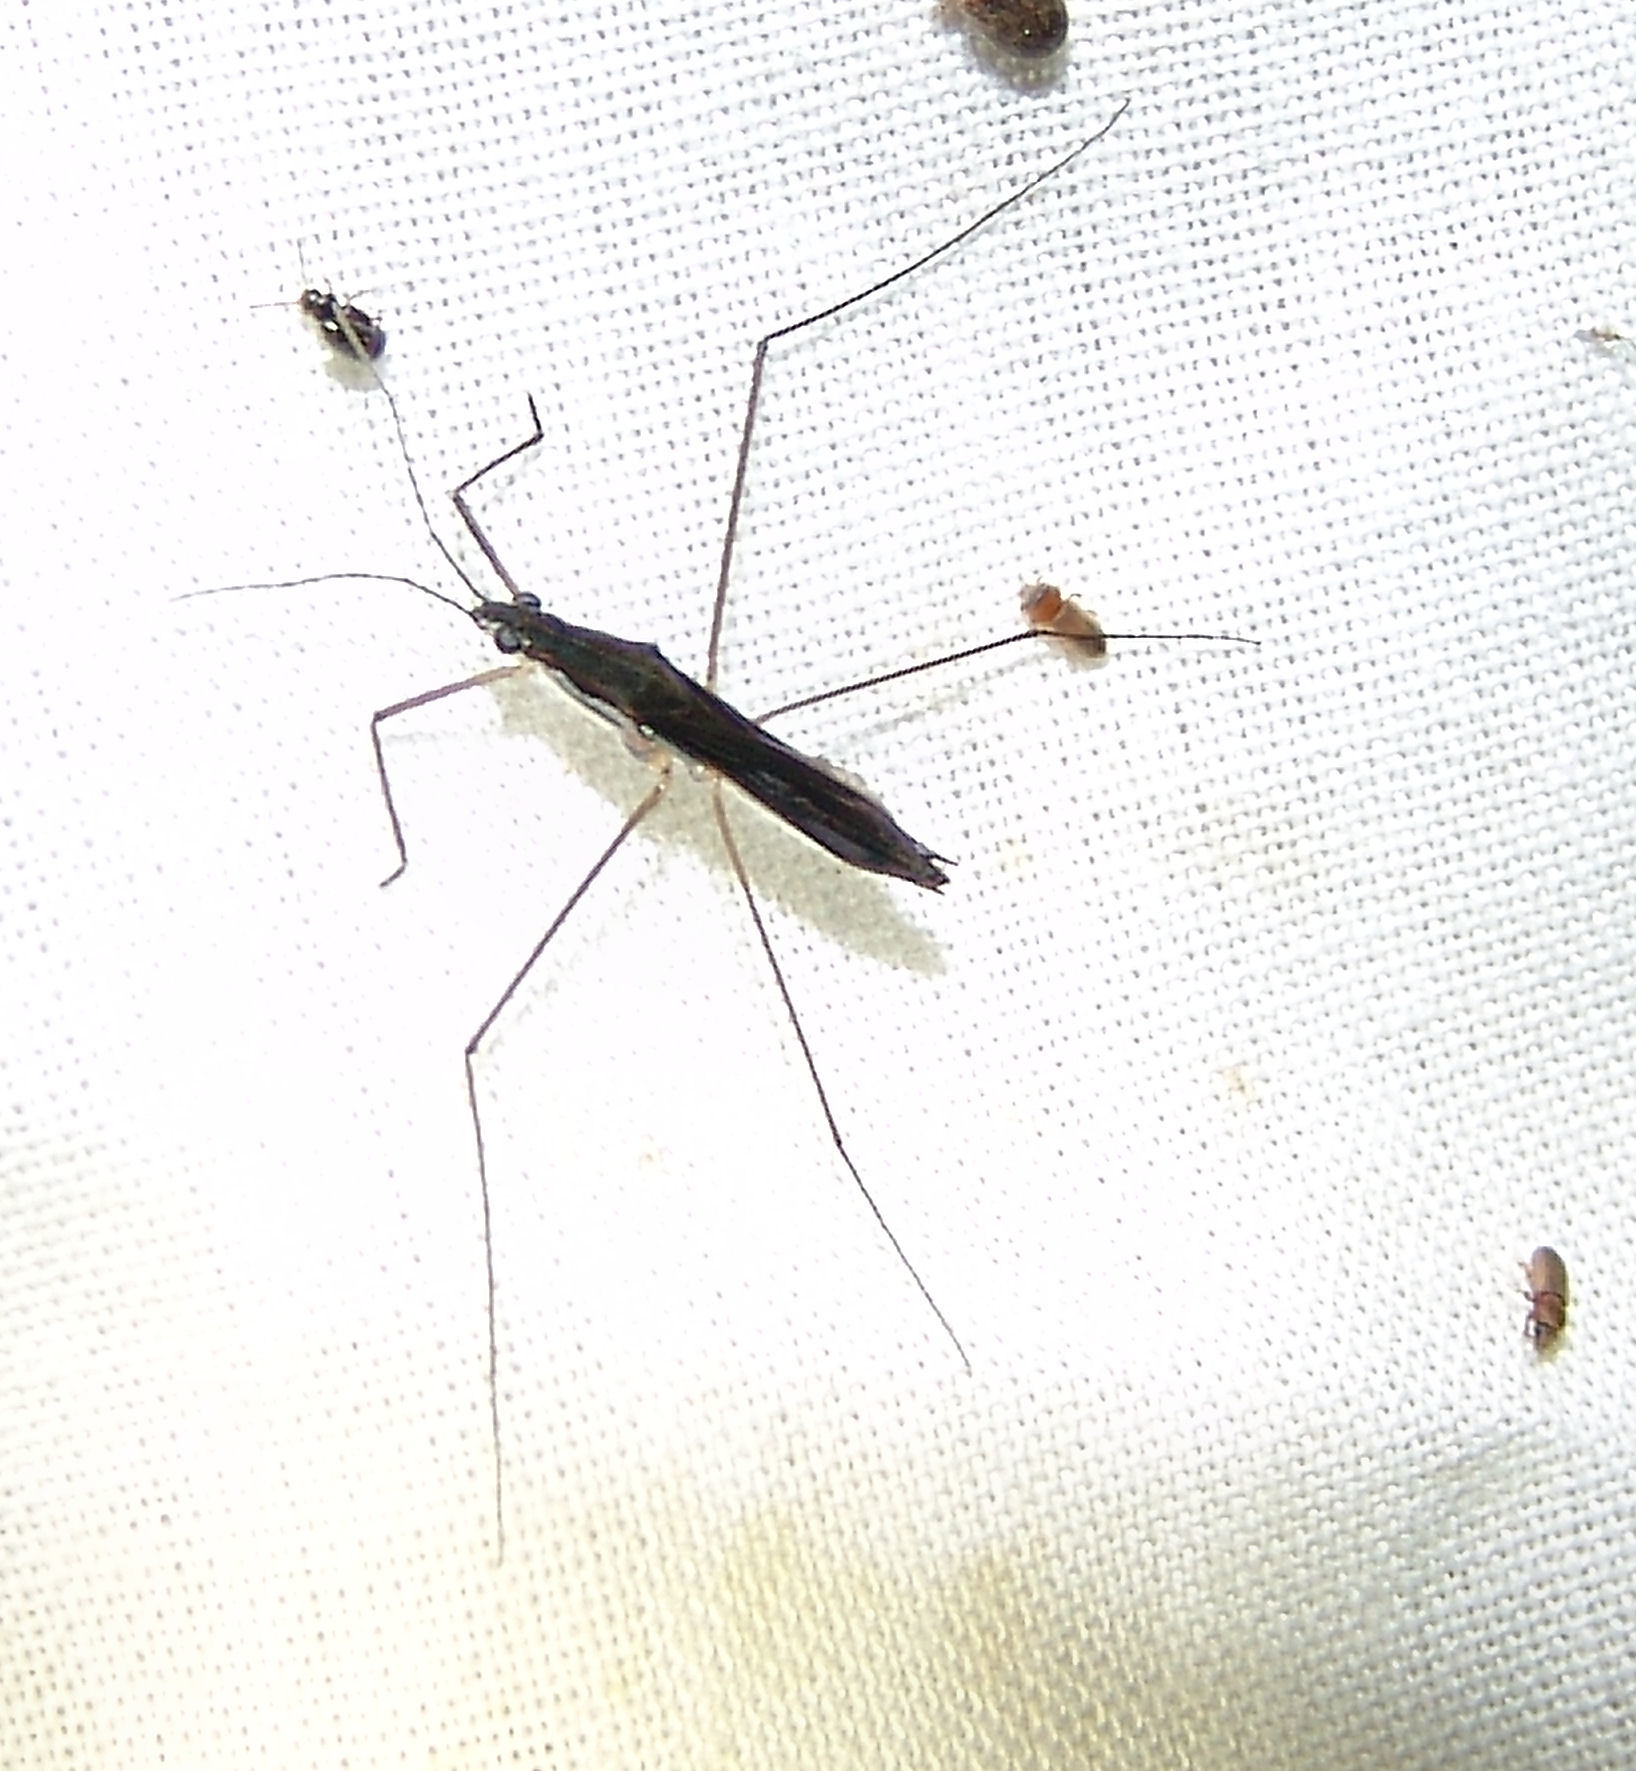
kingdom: Animalia
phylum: Arthropoda
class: Insecta
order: Hemiptera
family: Gerridae
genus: Limnoporus
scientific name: Limnoporus canaliculatus
